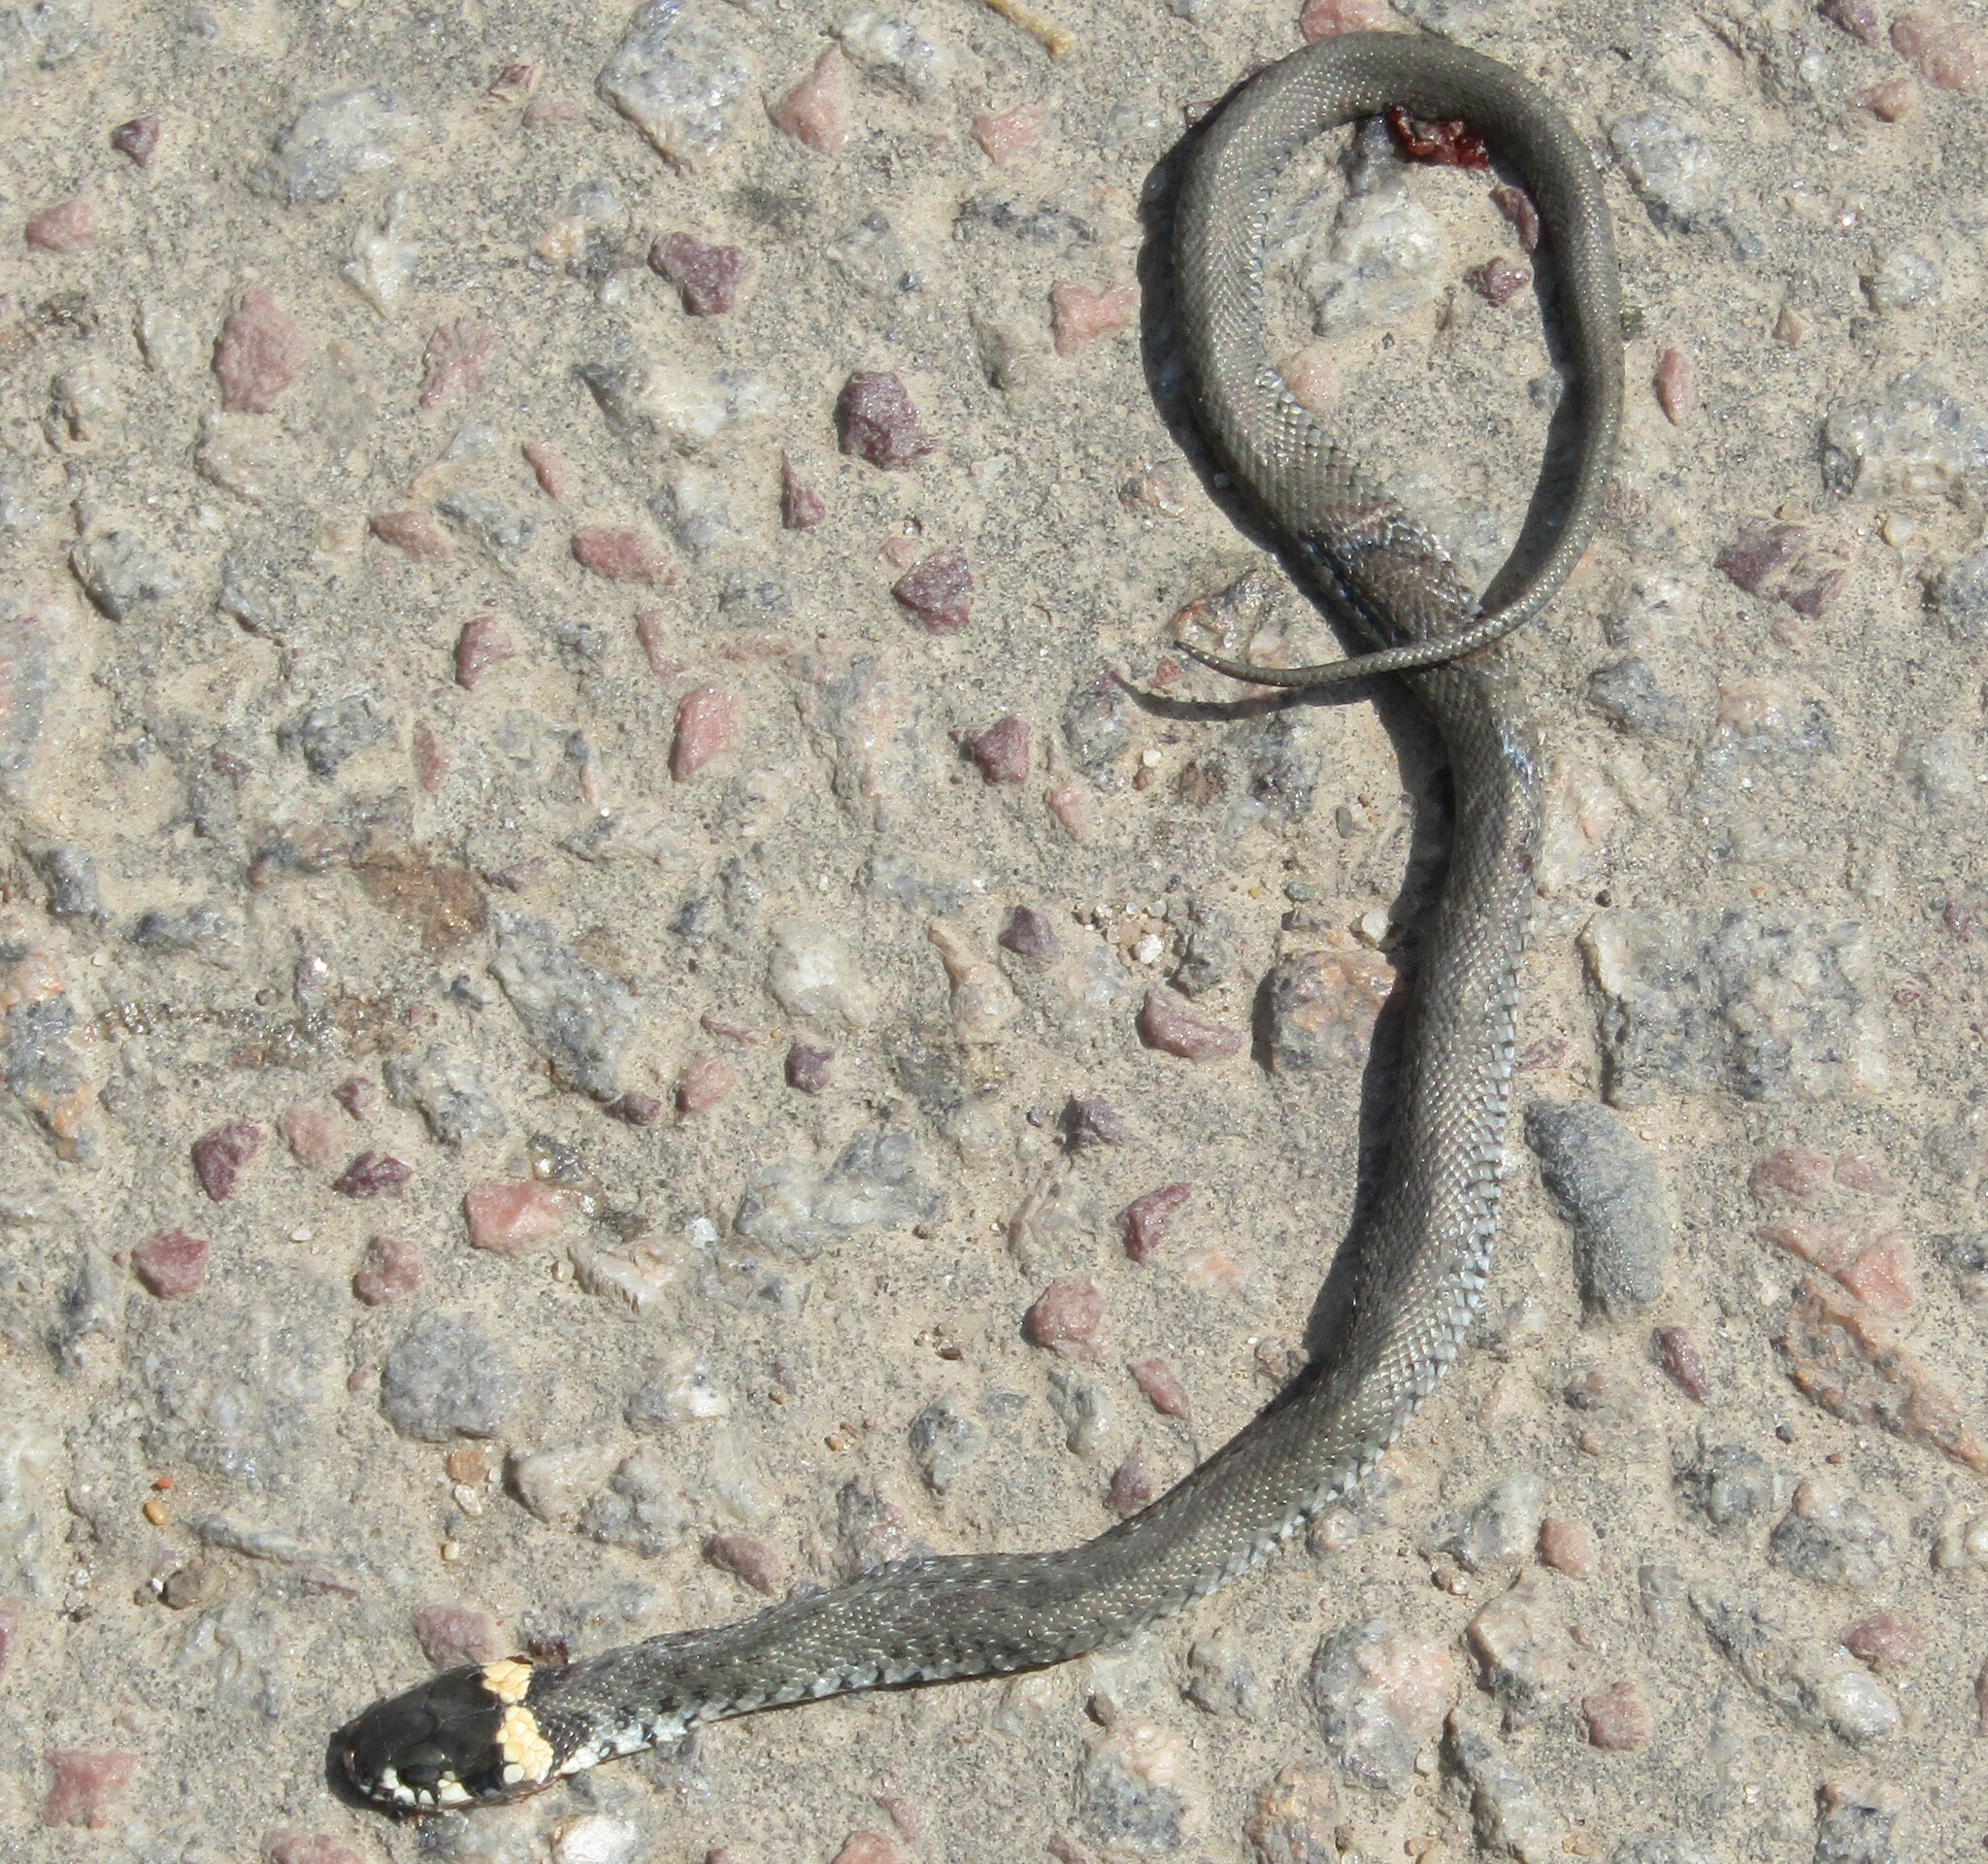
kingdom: Animalia
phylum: Chordata
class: Squamata
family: Colubridae
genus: Natrix
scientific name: Natrix natrix
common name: Grass snake
